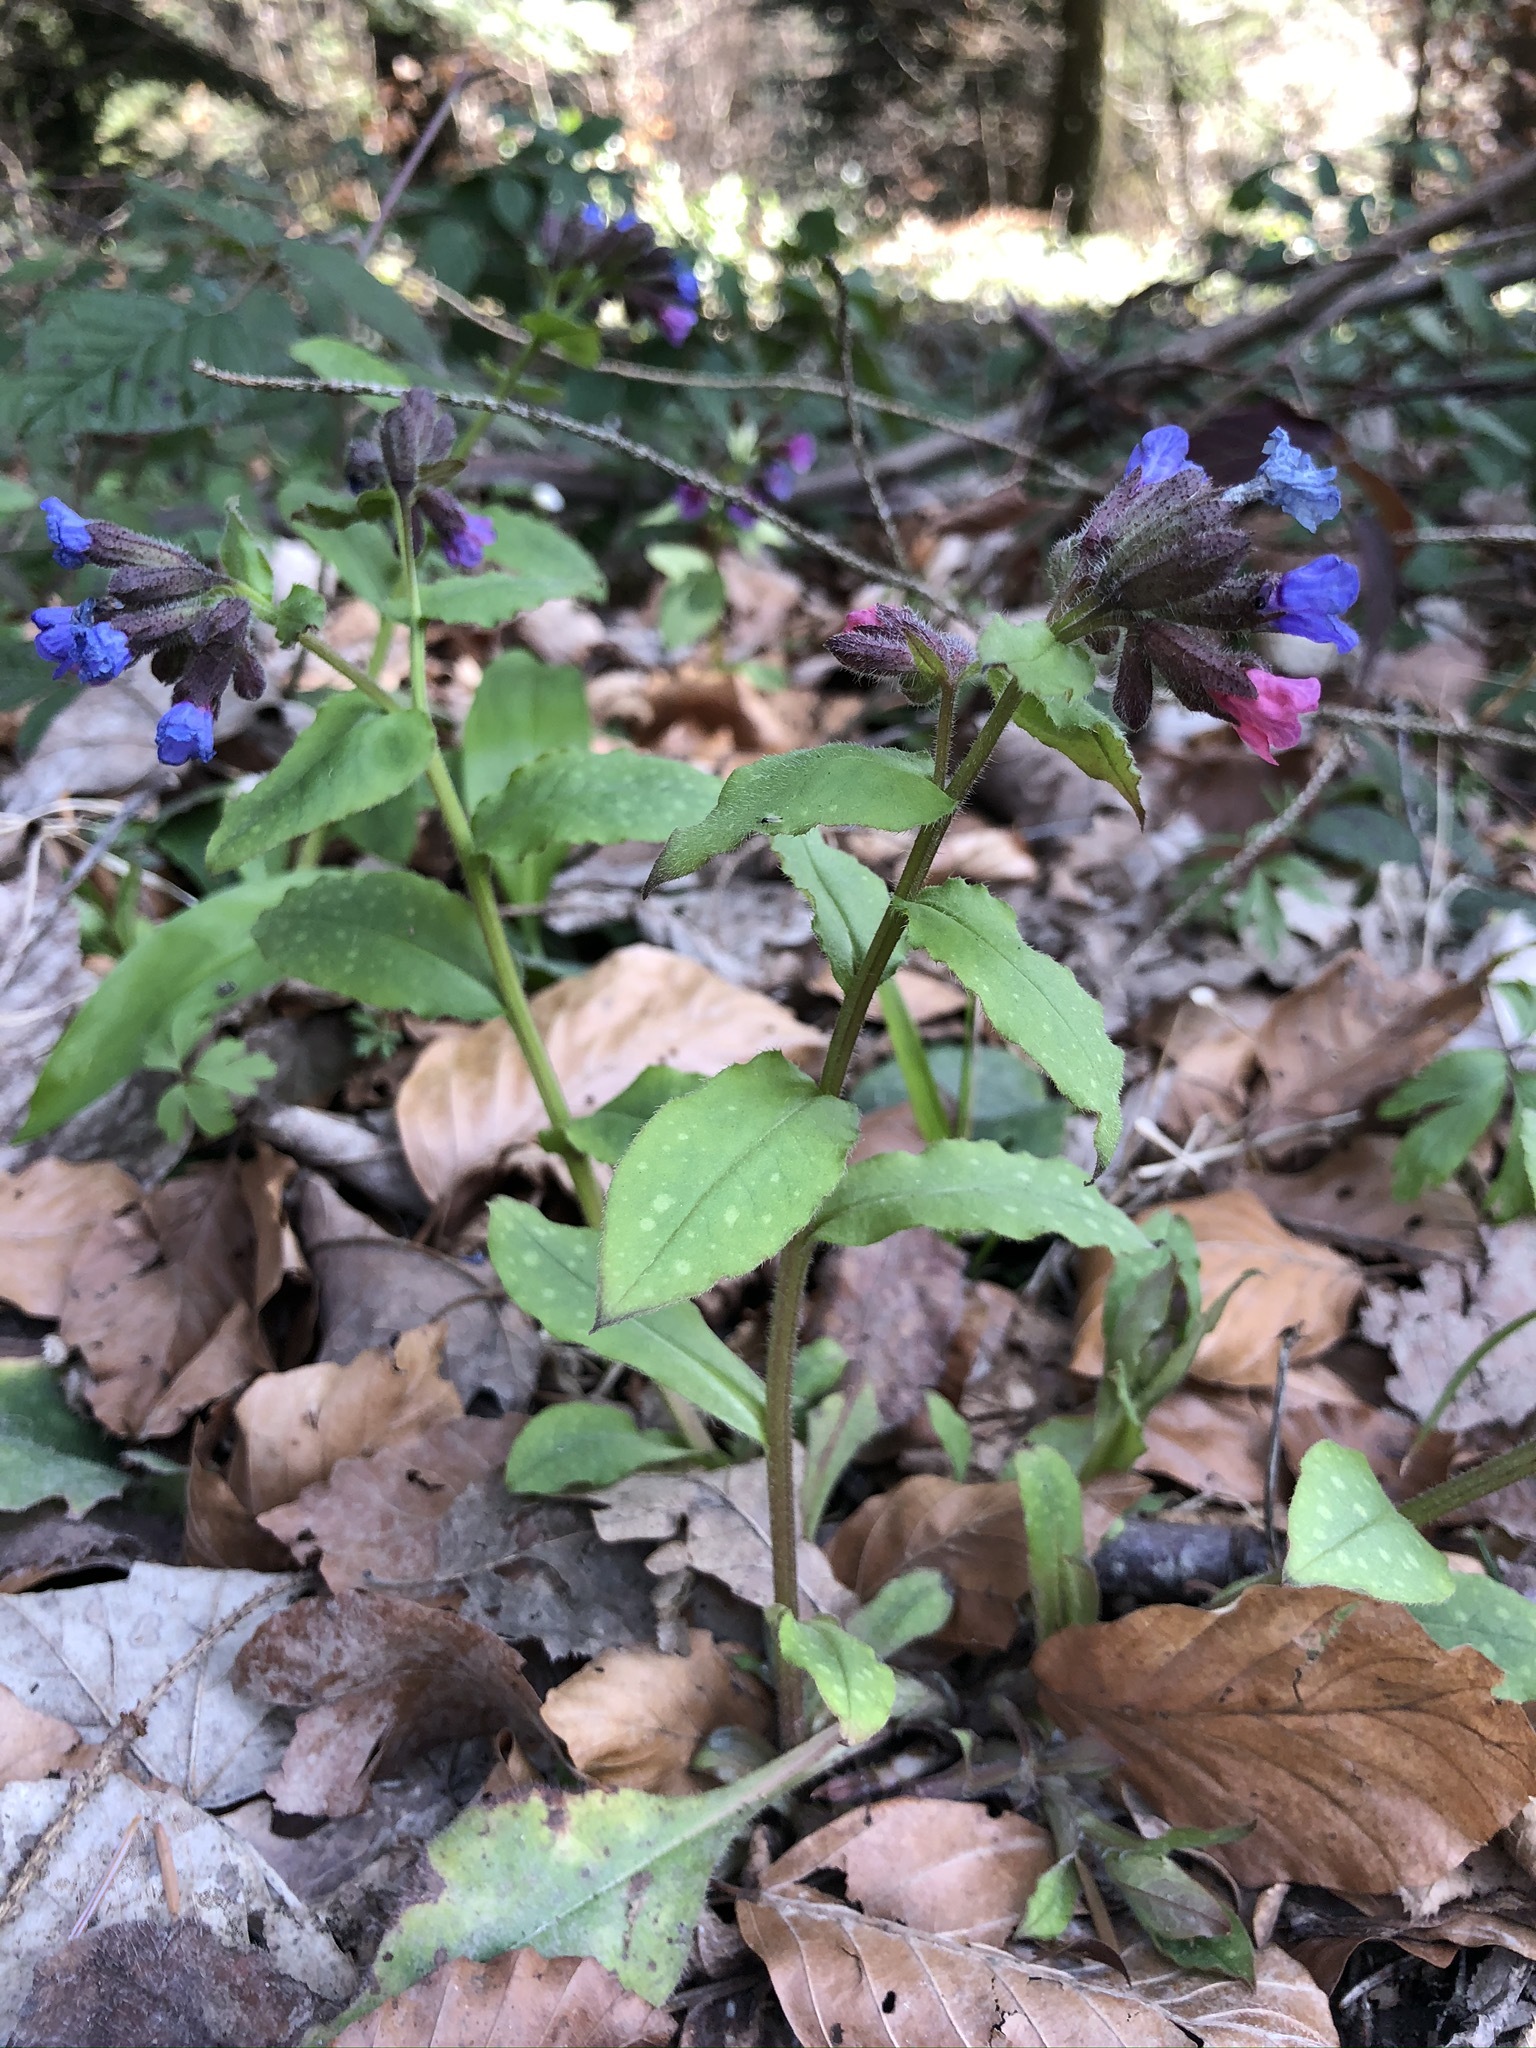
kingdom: Plantae
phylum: Tracheophyta
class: Magnoliopsida
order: Boraginales
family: Boraginaceae
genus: Pulmonaria
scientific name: Pulmonaria officinalis
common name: Lungwort
